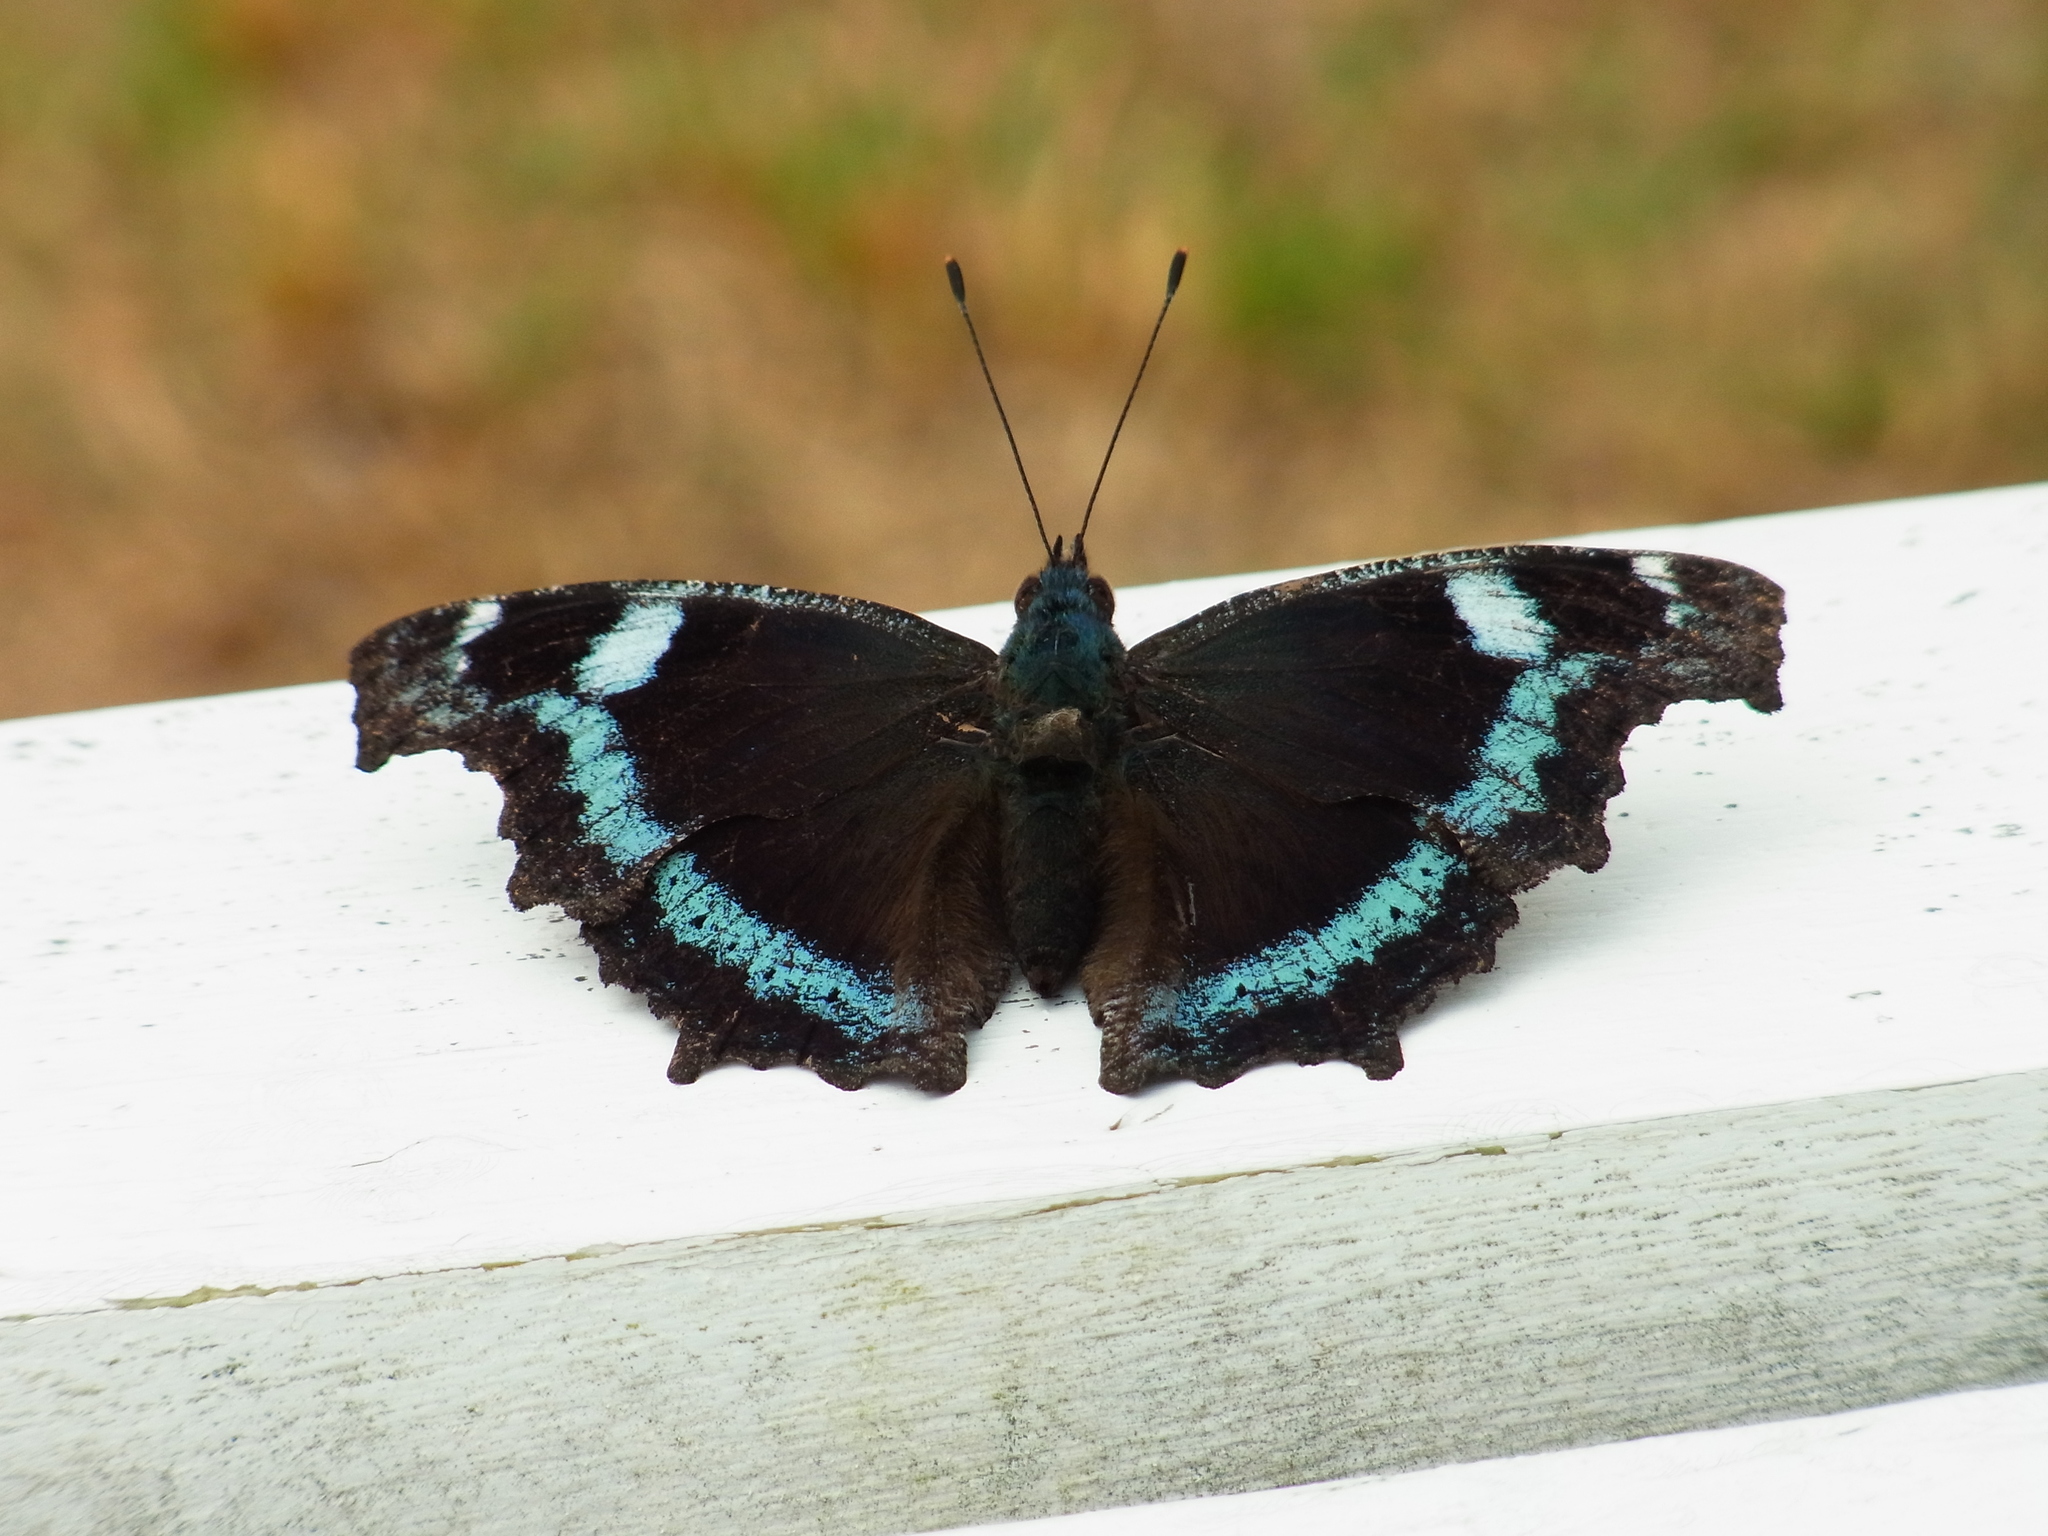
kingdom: Animalia
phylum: Arthropoda
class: Insecta
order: Lepidoptera
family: Nymphalidae
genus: Vanessa
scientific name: Vanessa Kaniska canace
